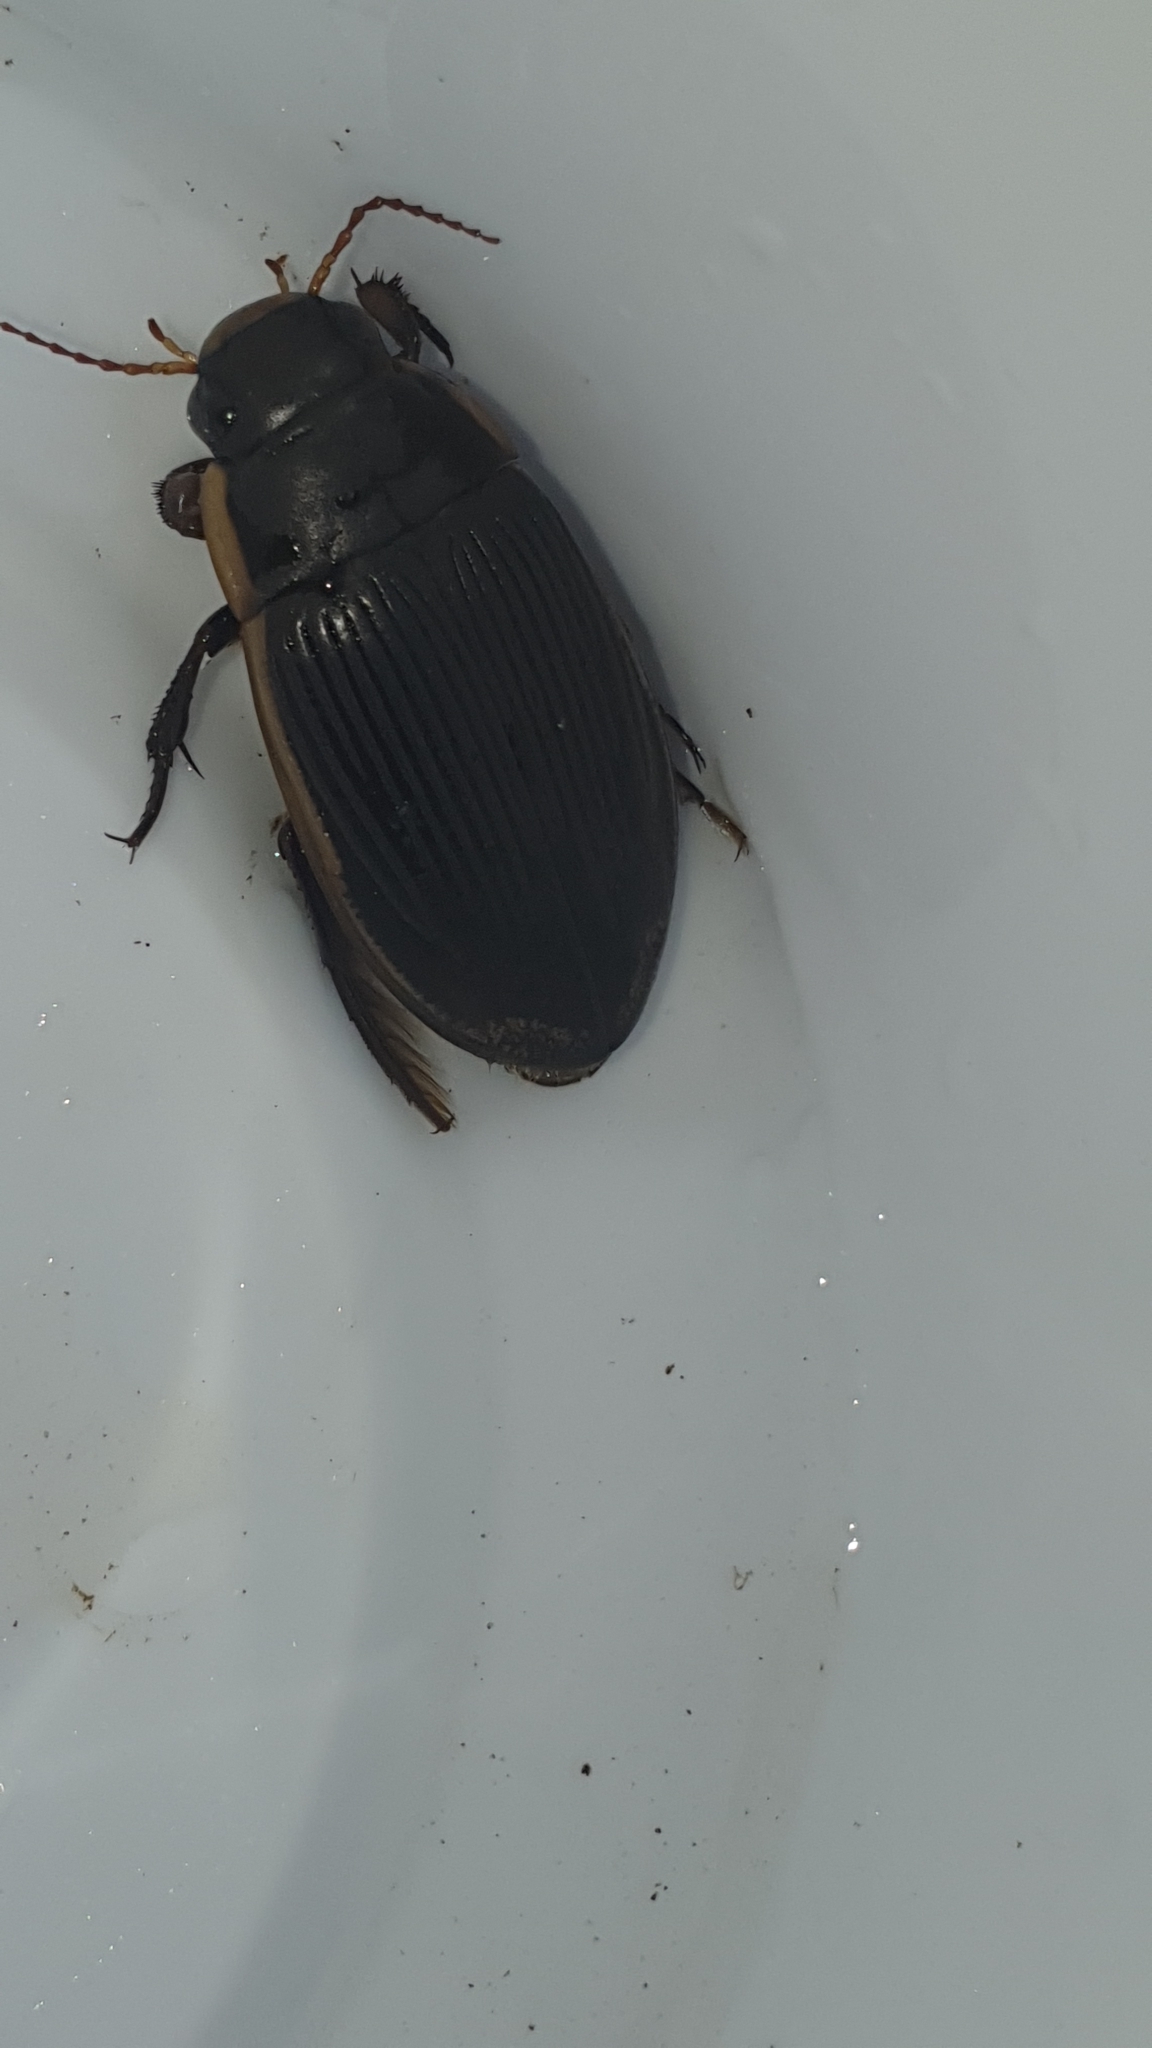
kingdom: Animalia
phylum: Arthropoda
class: Insecta
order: Coleoptera
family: Dytiscidae
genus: Dytiscus
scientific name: Dytiscus semisulcatus
